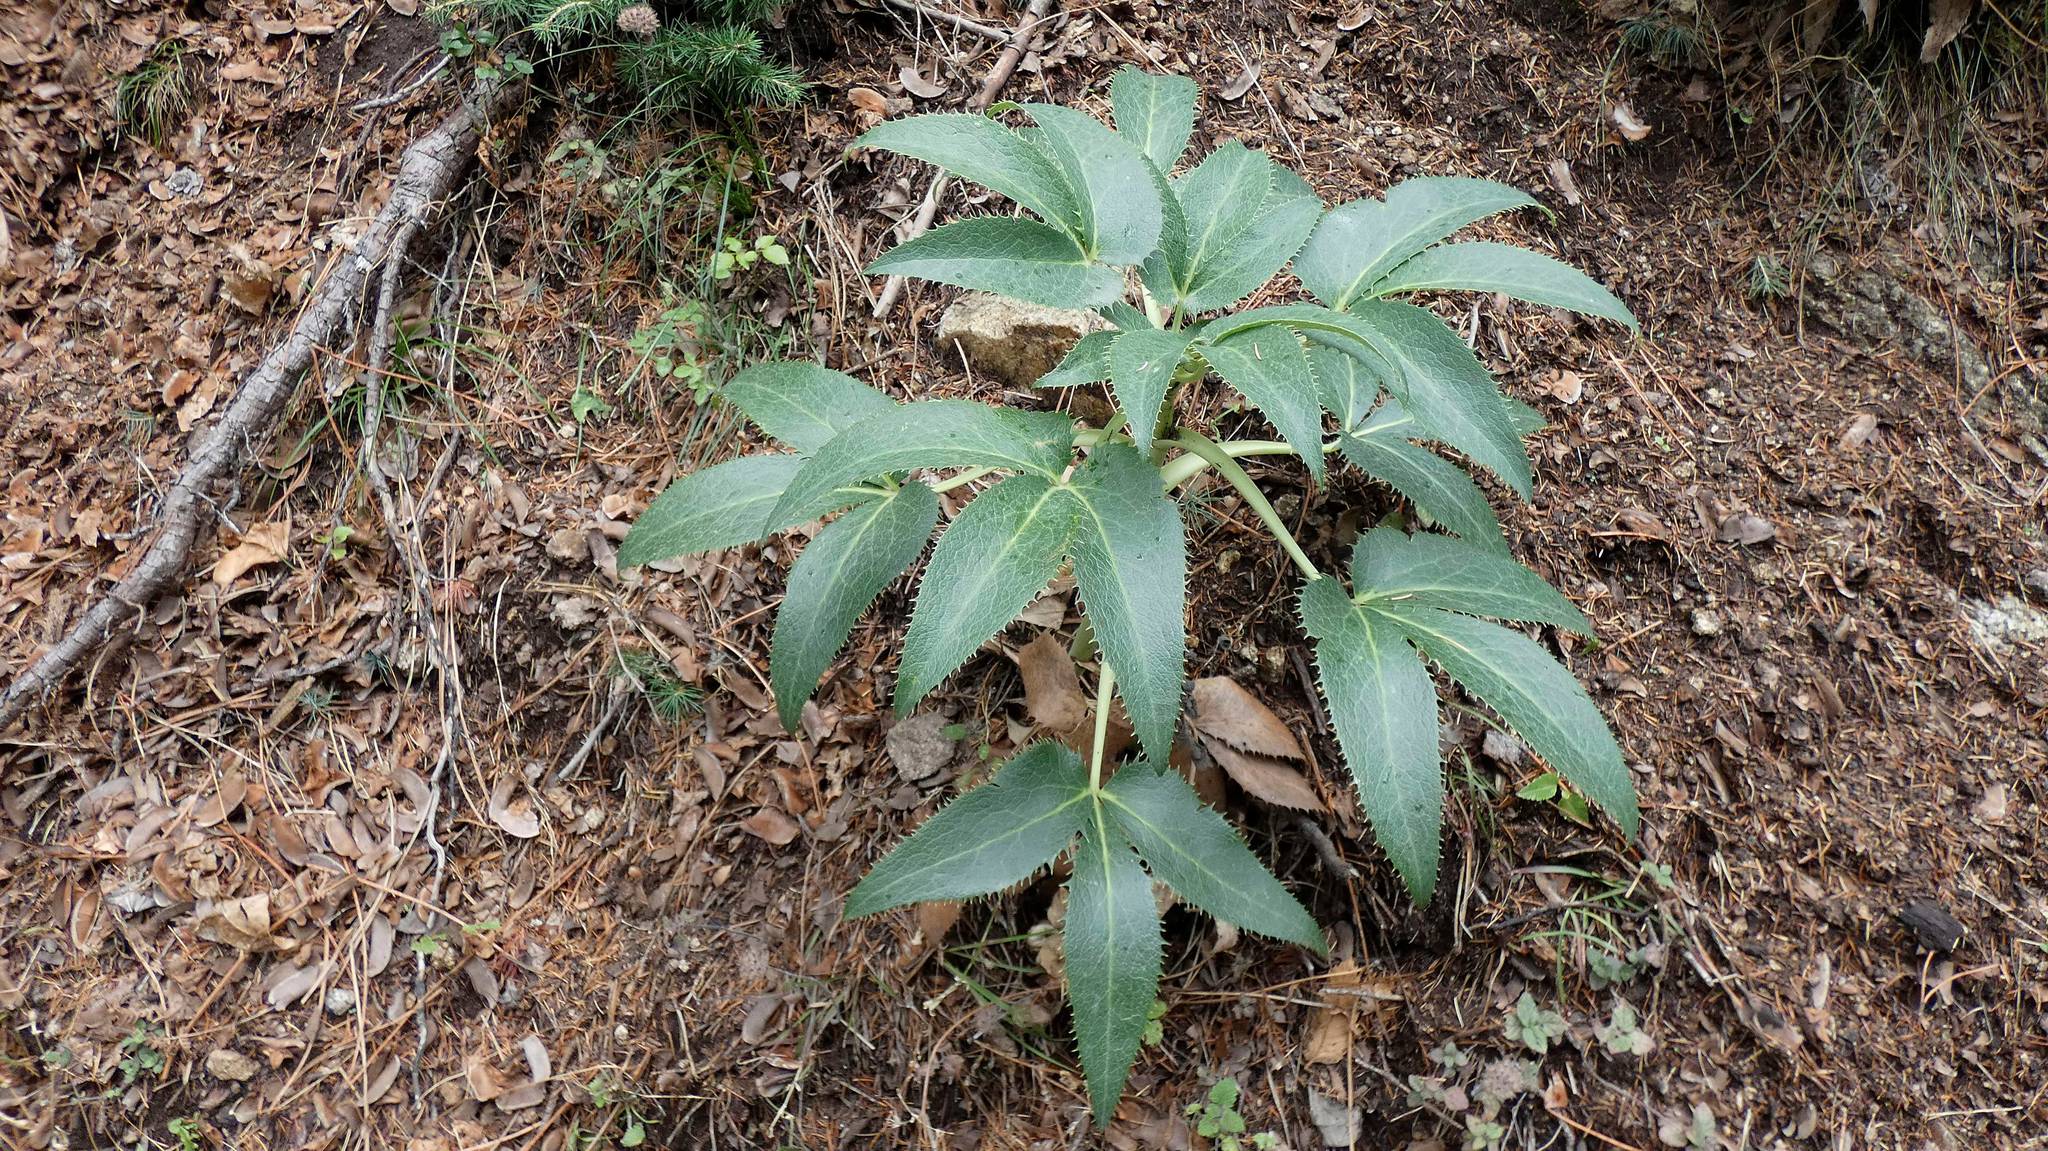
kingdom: Plantae
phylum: Tracheophyta
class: Magnoliopsida
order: Ranunculales
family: Ranunculaceae
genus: Helleborus
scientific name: Helleborus argutifolius
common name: Corsican hellebore
